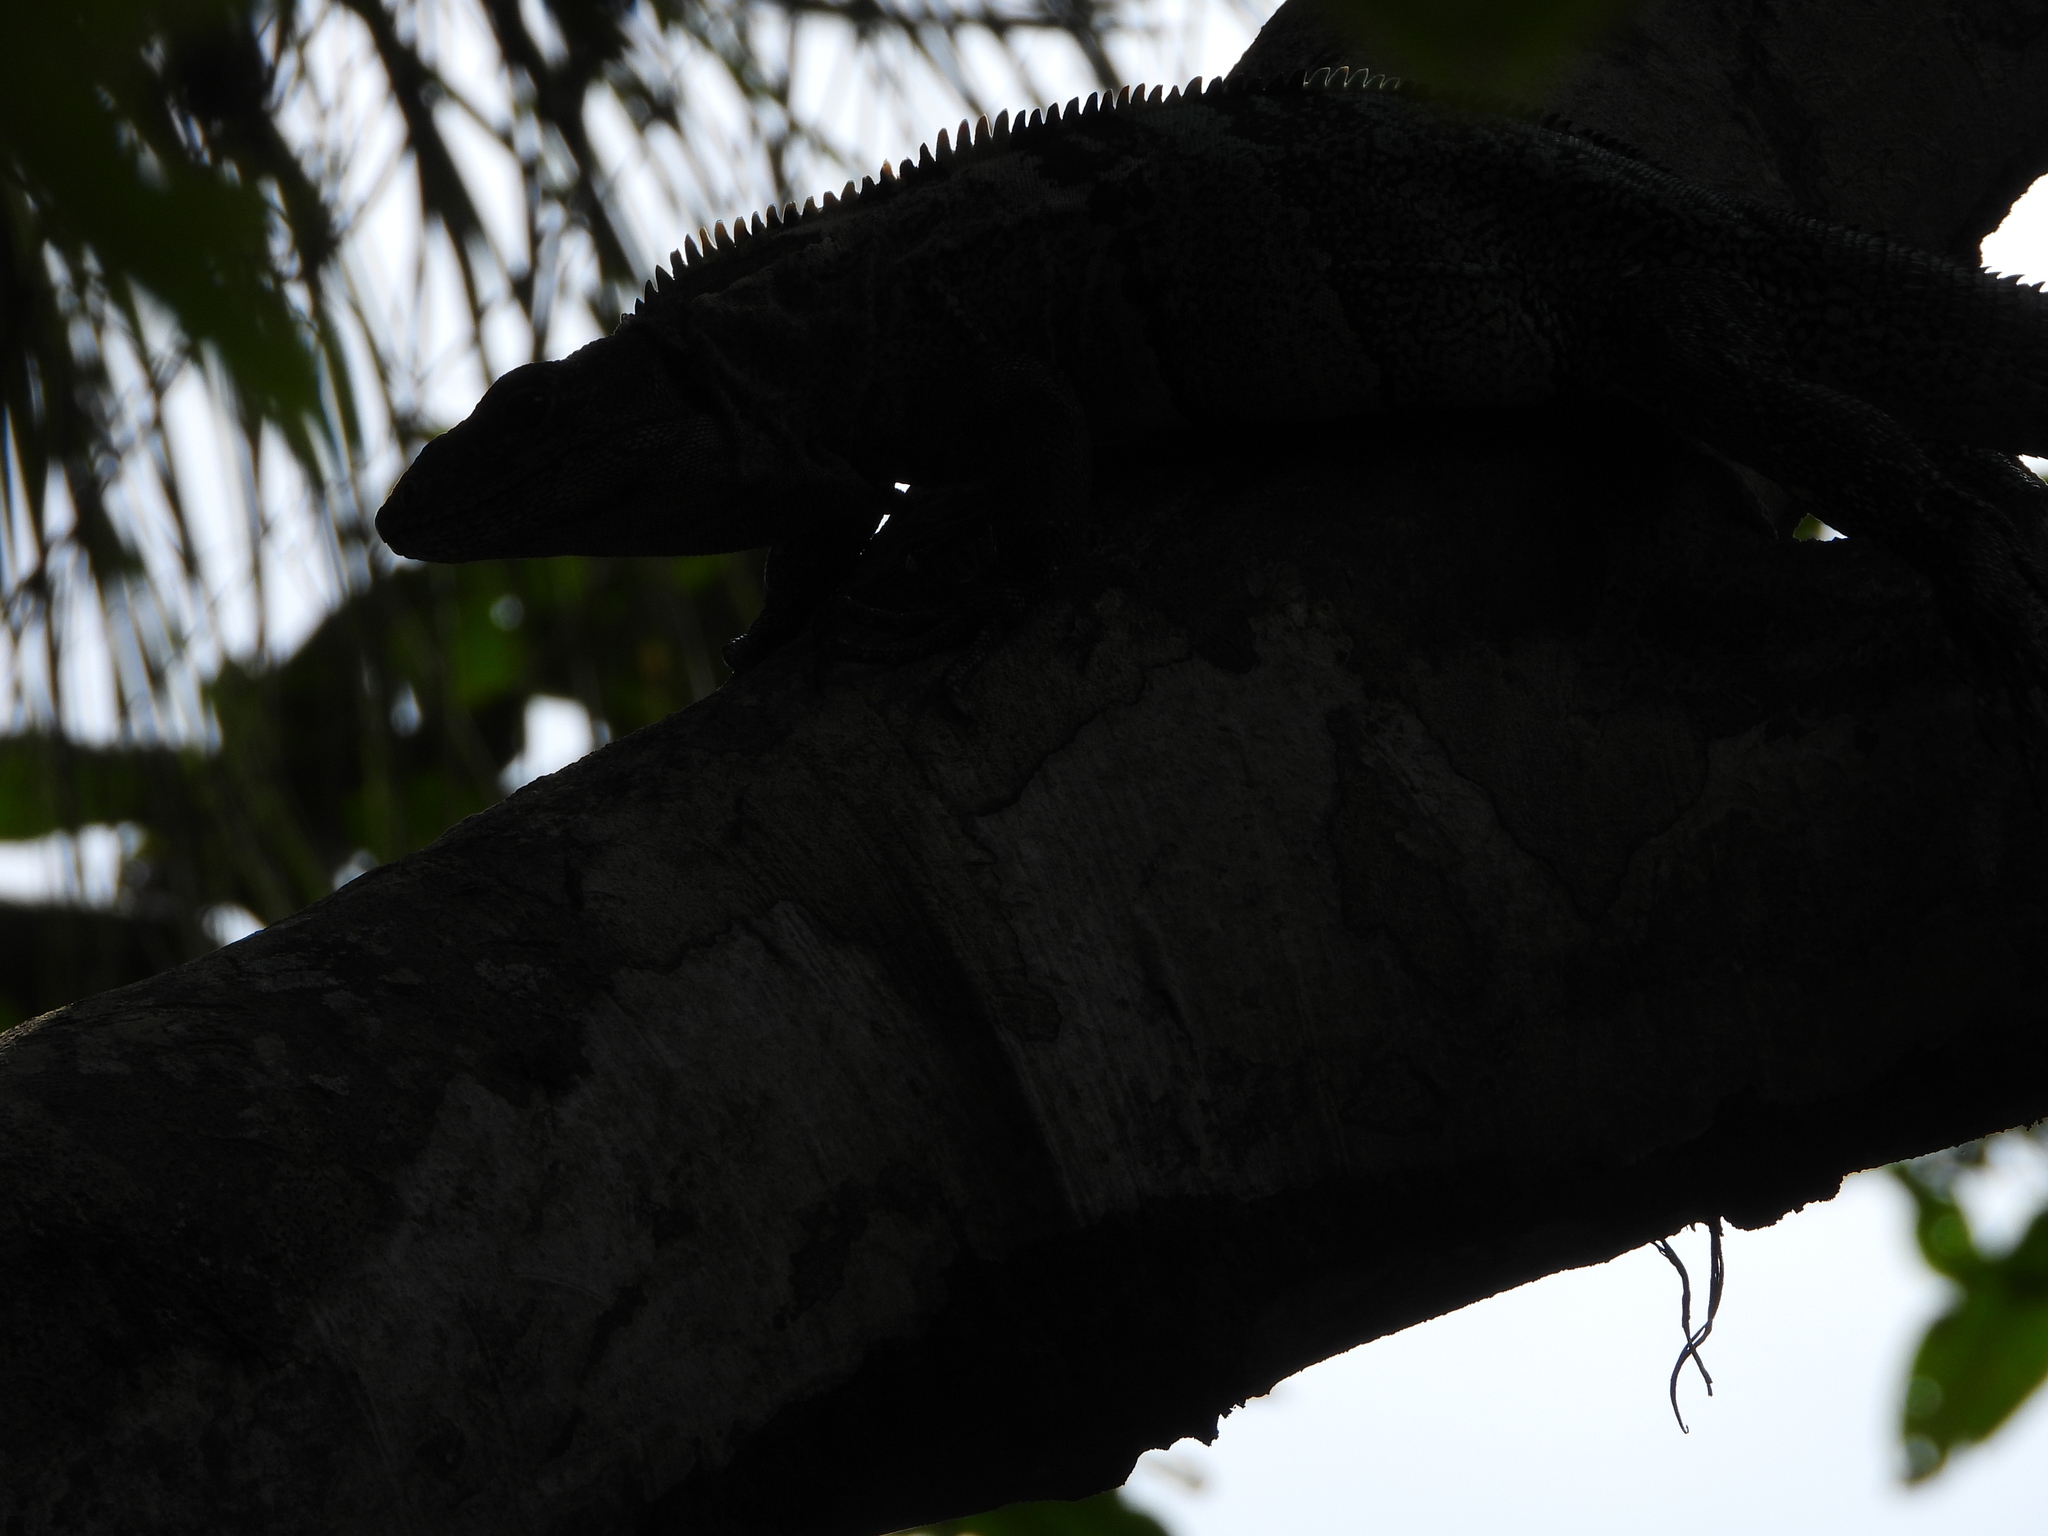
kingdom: Animalia
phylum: Chordata
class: Squamata
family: Iguanidae
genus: Ctenosaura
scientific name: Ctenosaura similis
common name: Black spiny-tailed iguana
